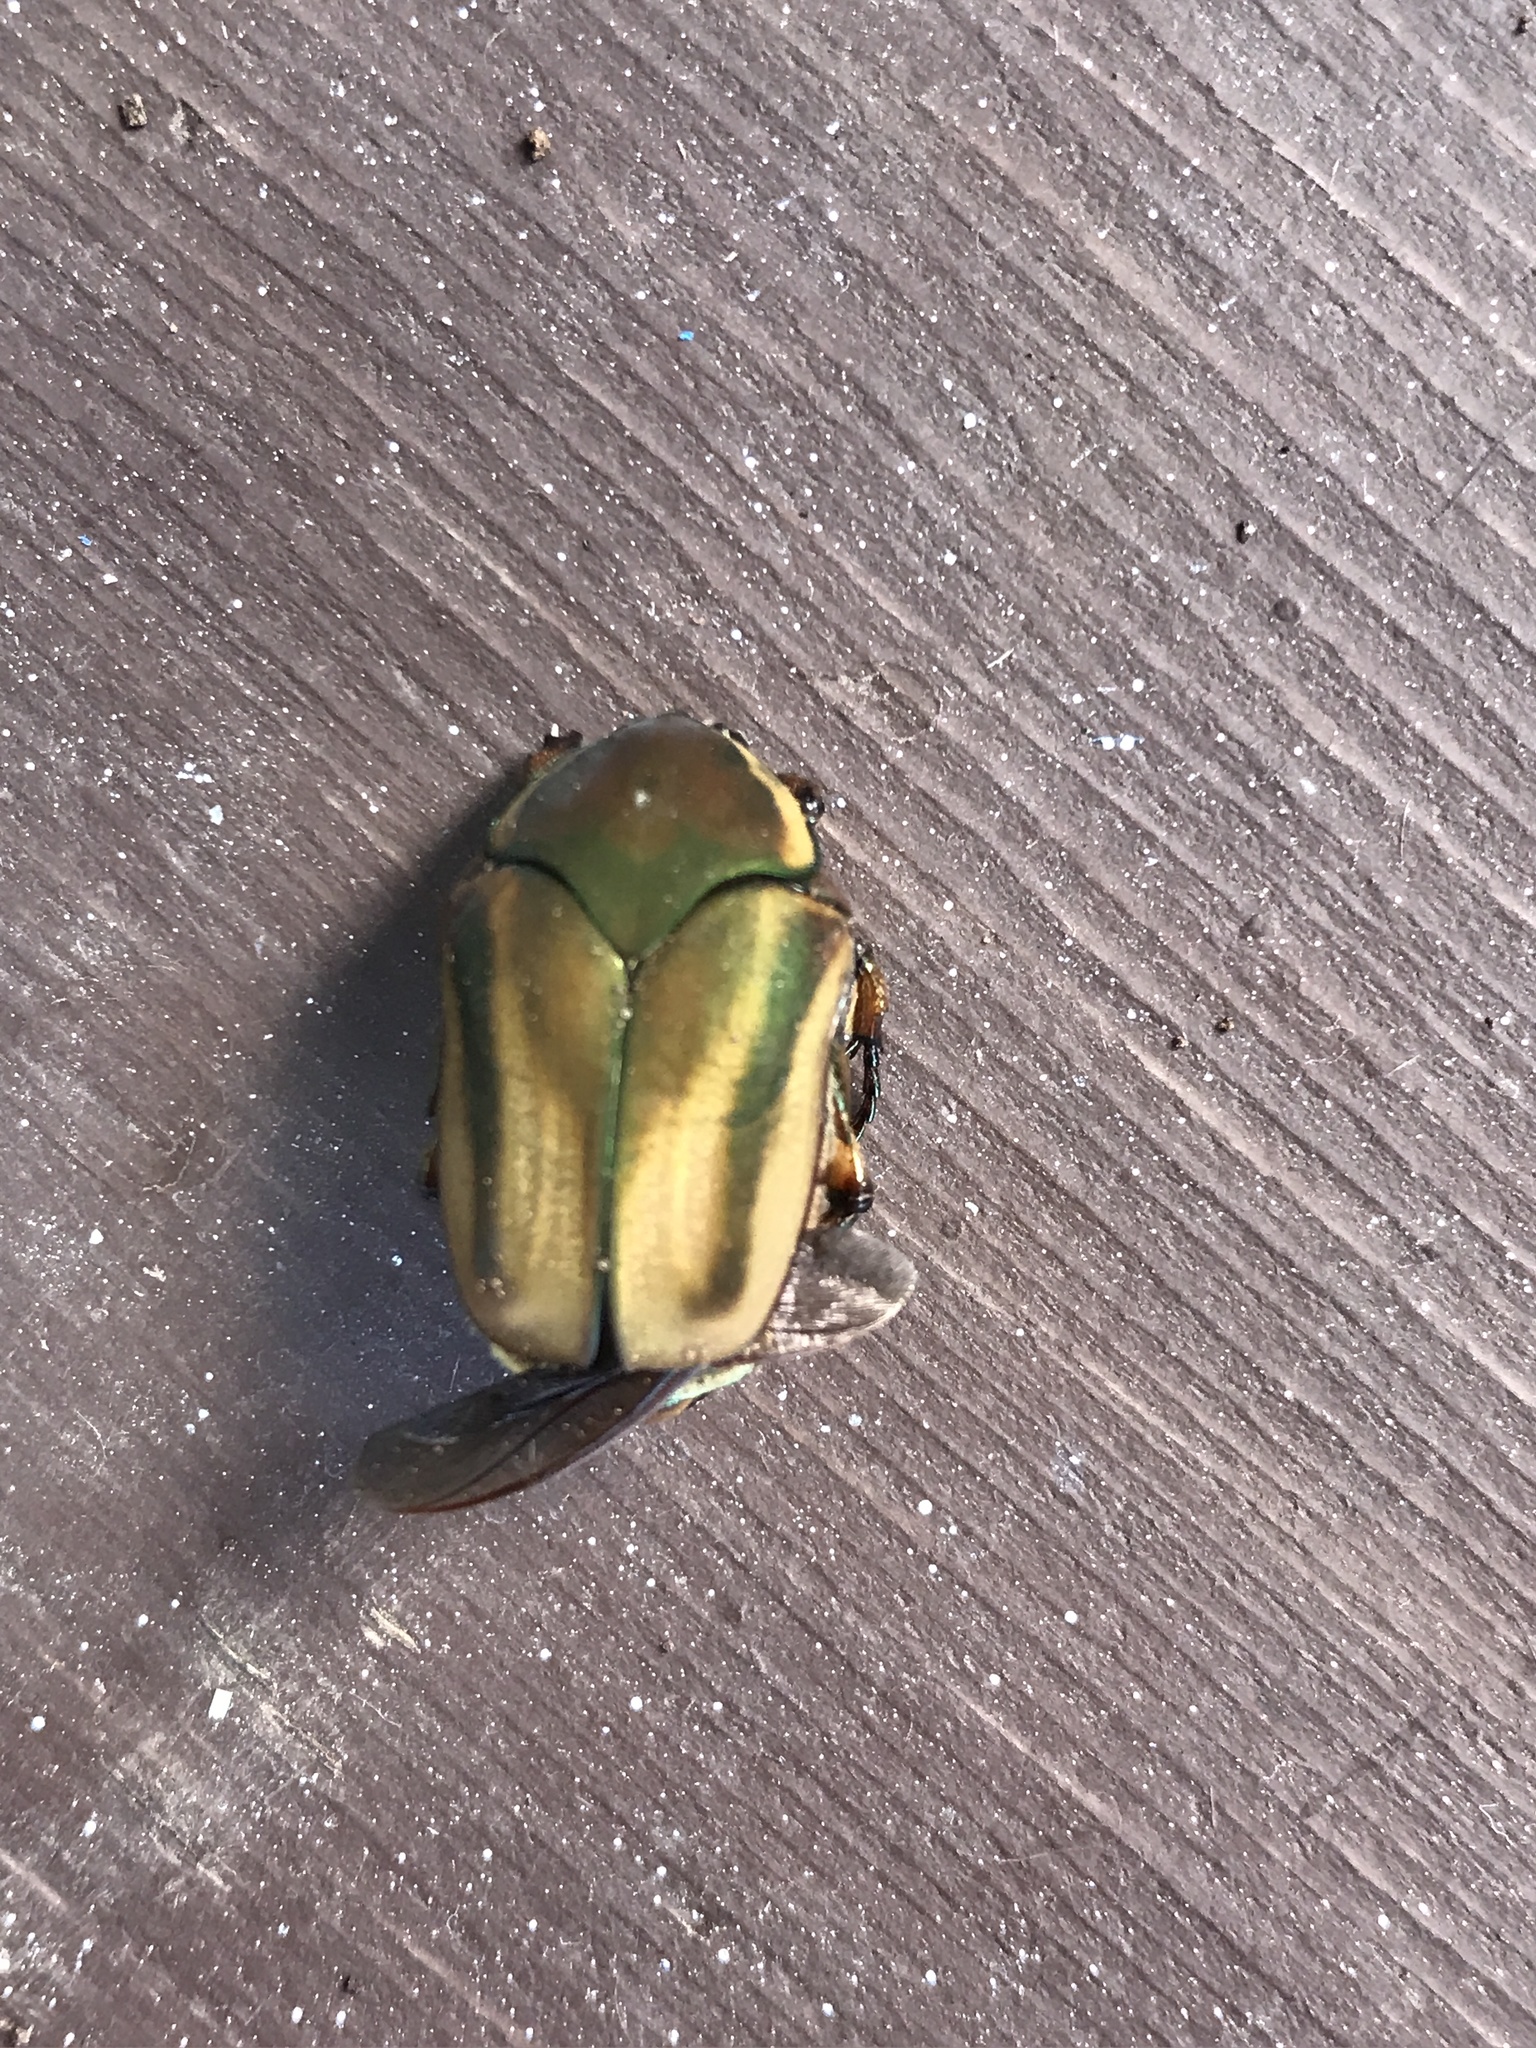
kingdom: Animalia
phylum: Arthropoda
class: Insecta
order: Coleoptera
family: Scarabaeidae
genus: Cotinis
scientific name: Cotinis nitida
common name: Common green june beetle
